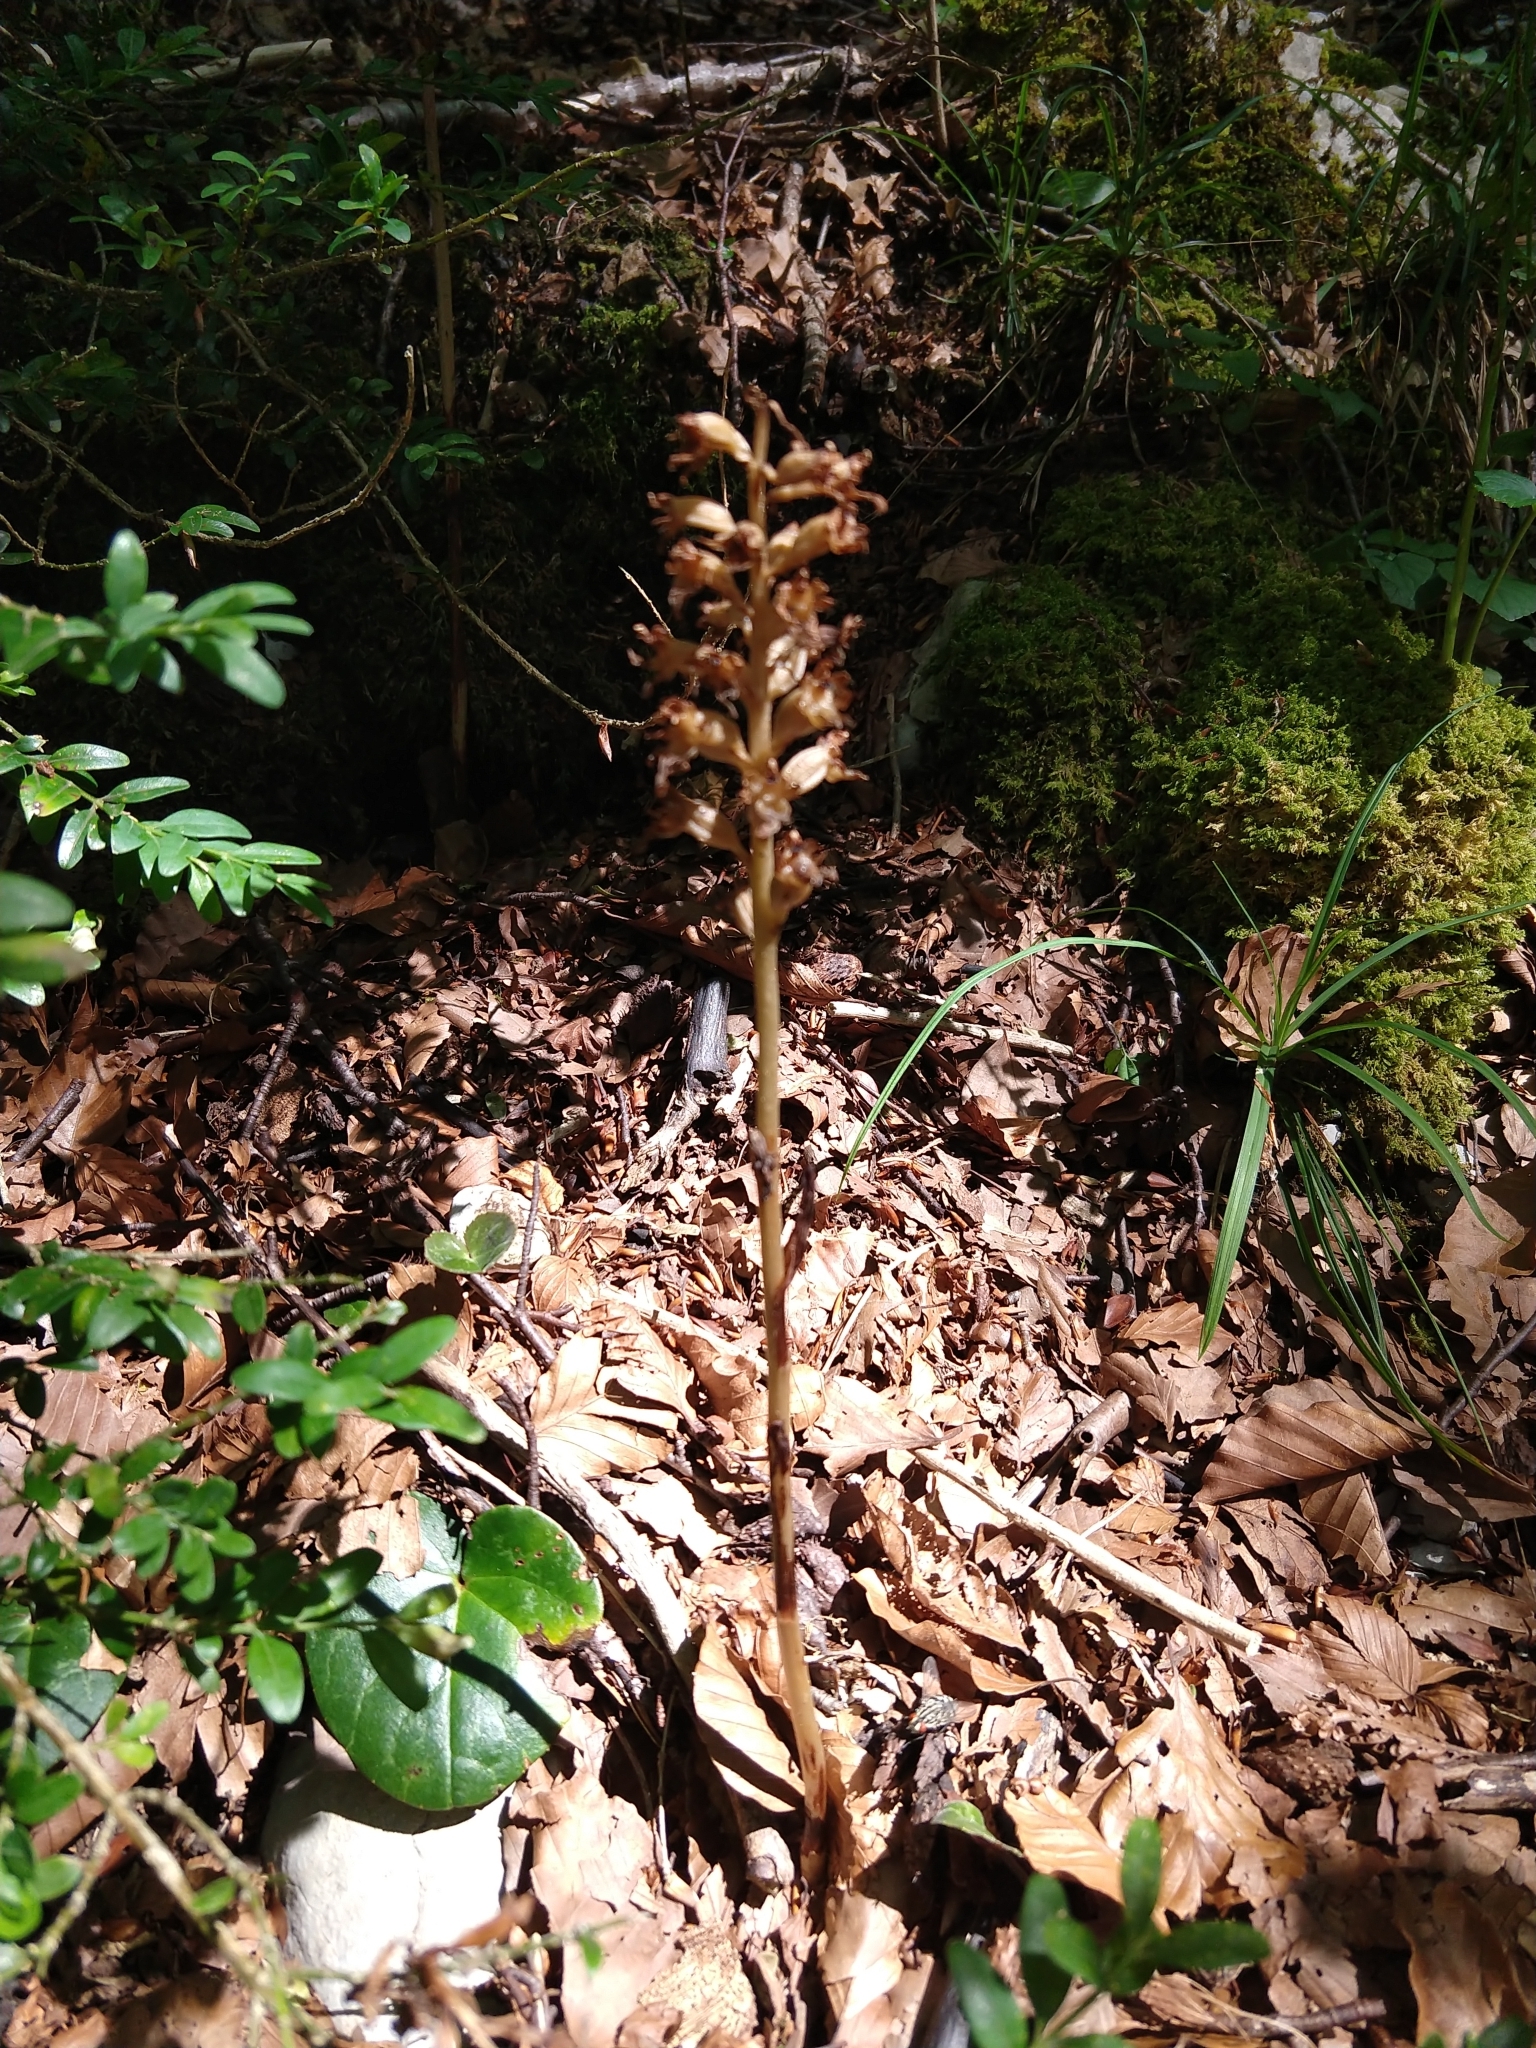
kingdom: Plantae
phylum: Tracheophyta
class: Liliopsida
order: Asparagales
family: Orchidaceae
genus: Neottia
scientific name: Neottia nidus-avis
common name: Bird's-nest orchid
